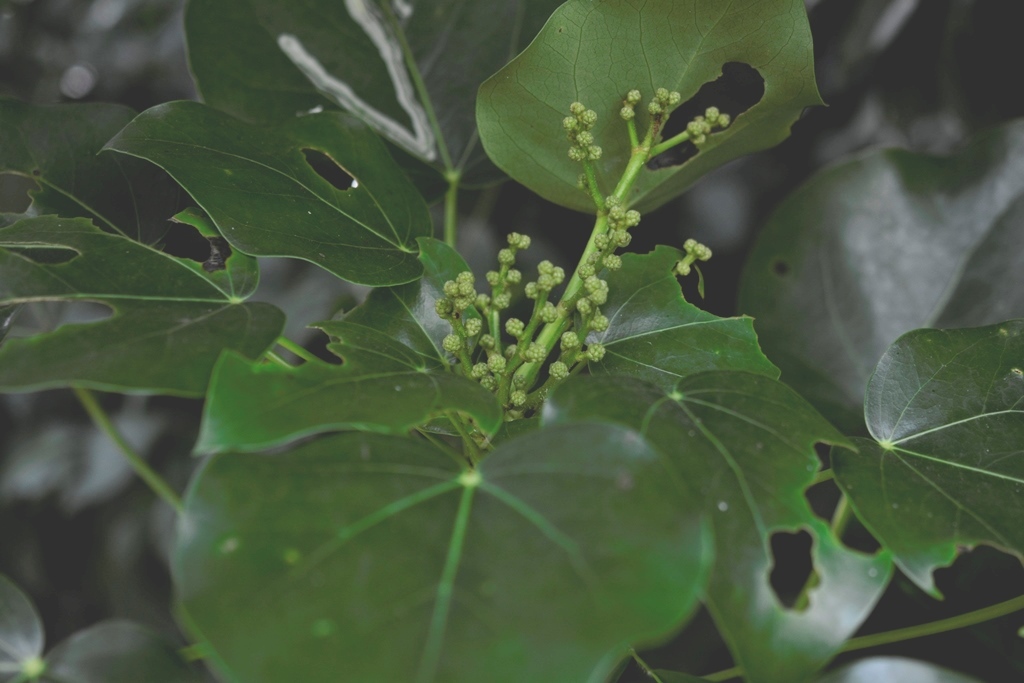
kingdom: Plantae
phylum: Tracheophyta
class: Magnoliopsida
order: Apiales
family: Araliaceae
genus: Oreopanax
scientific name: Oreopanax platyphyllus
